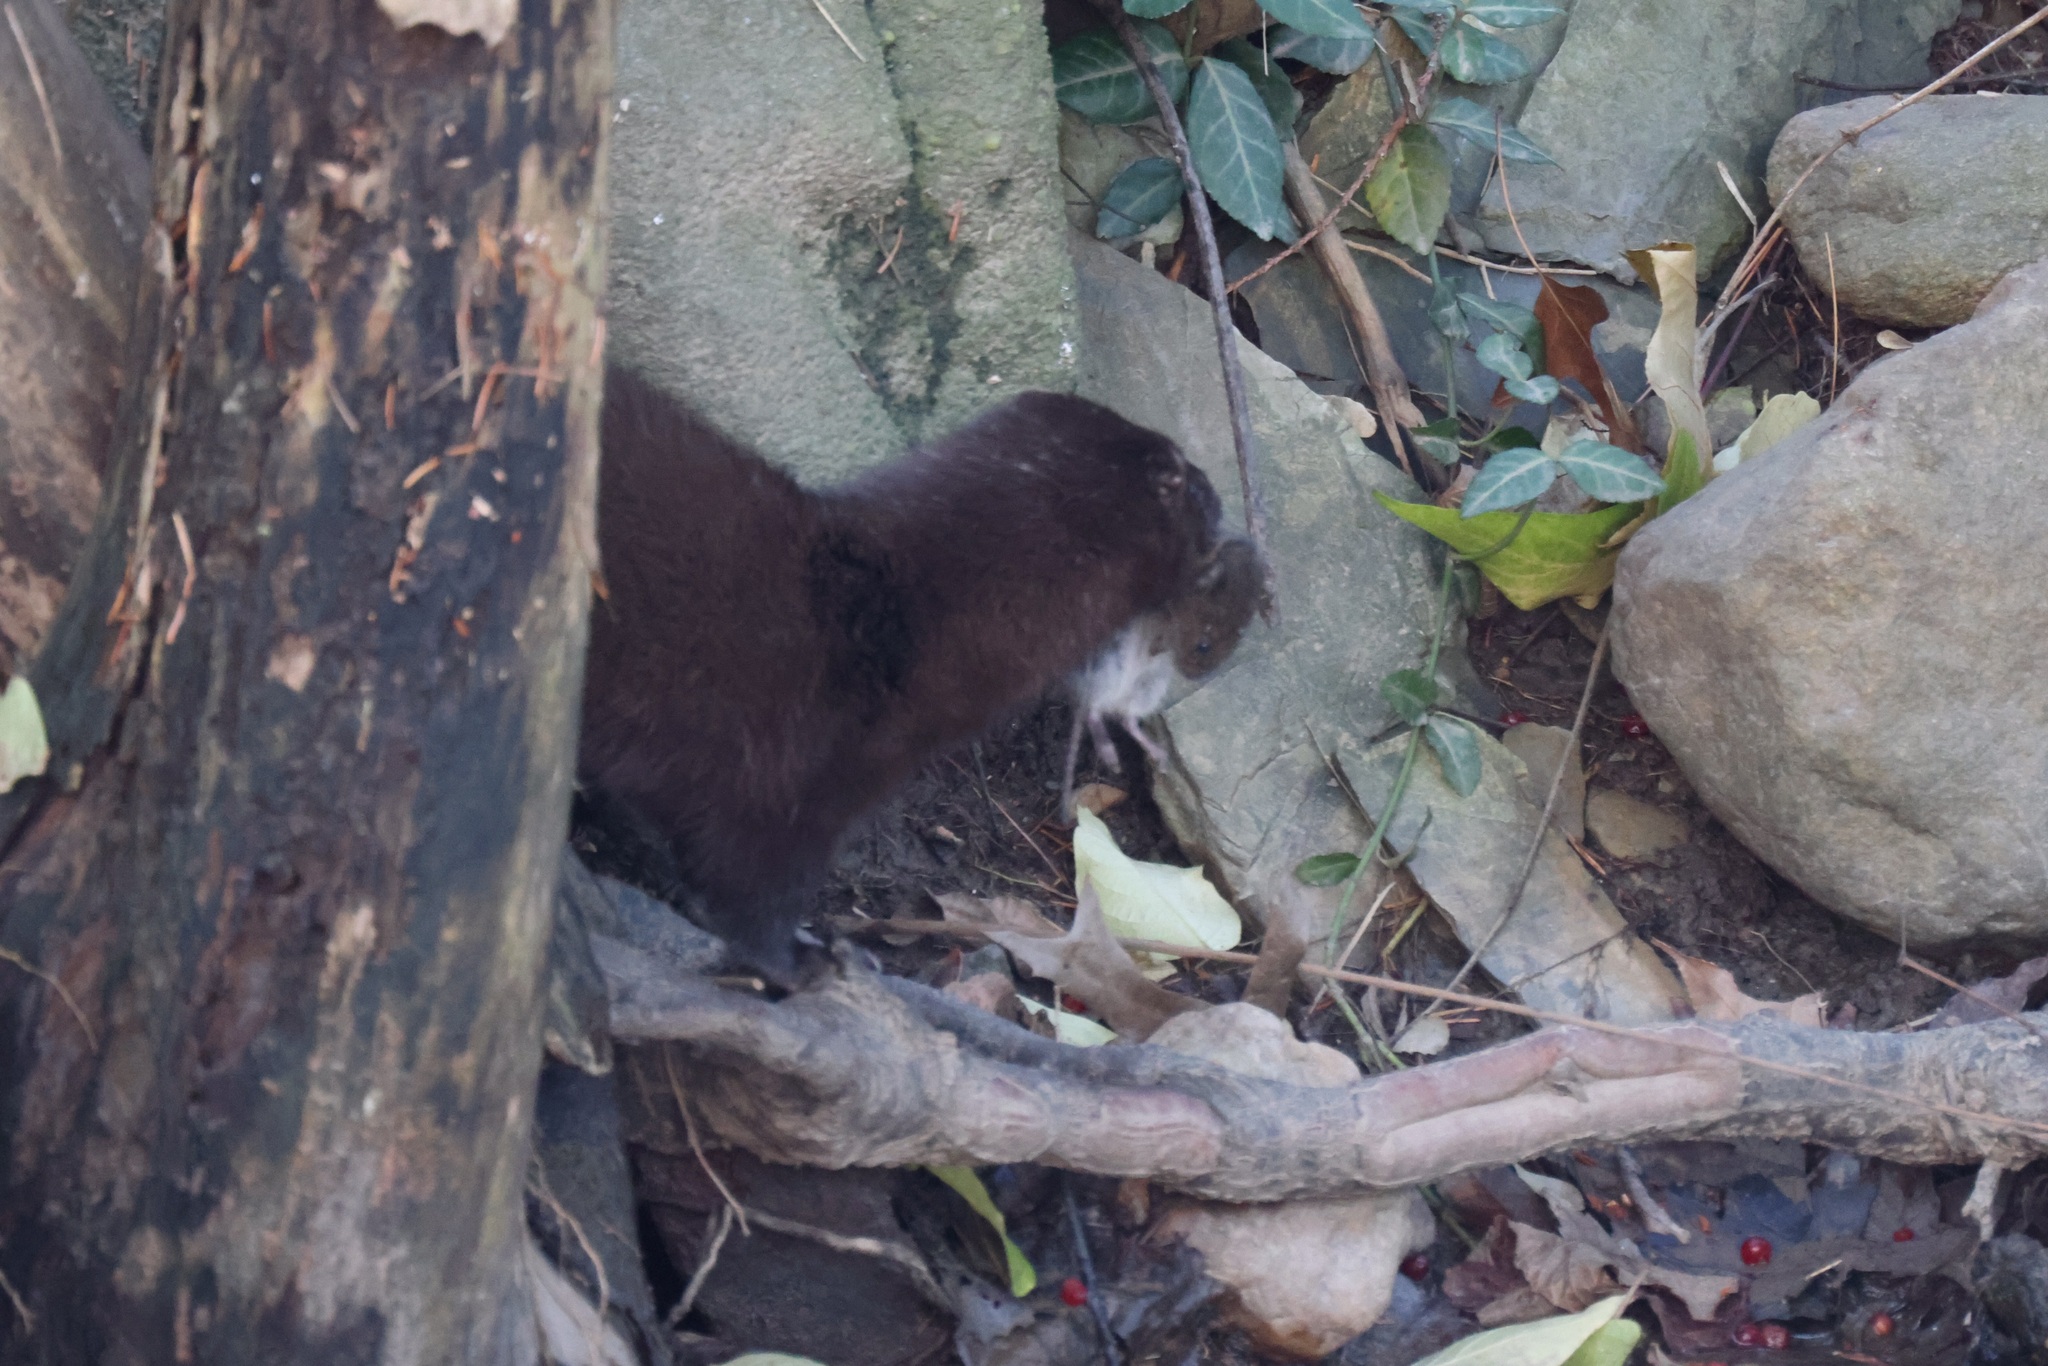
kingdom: Animalia
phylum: Chordata
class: Mammalia
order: Carnivora
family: Mustelidae
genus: Mustela
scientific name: Mustela
